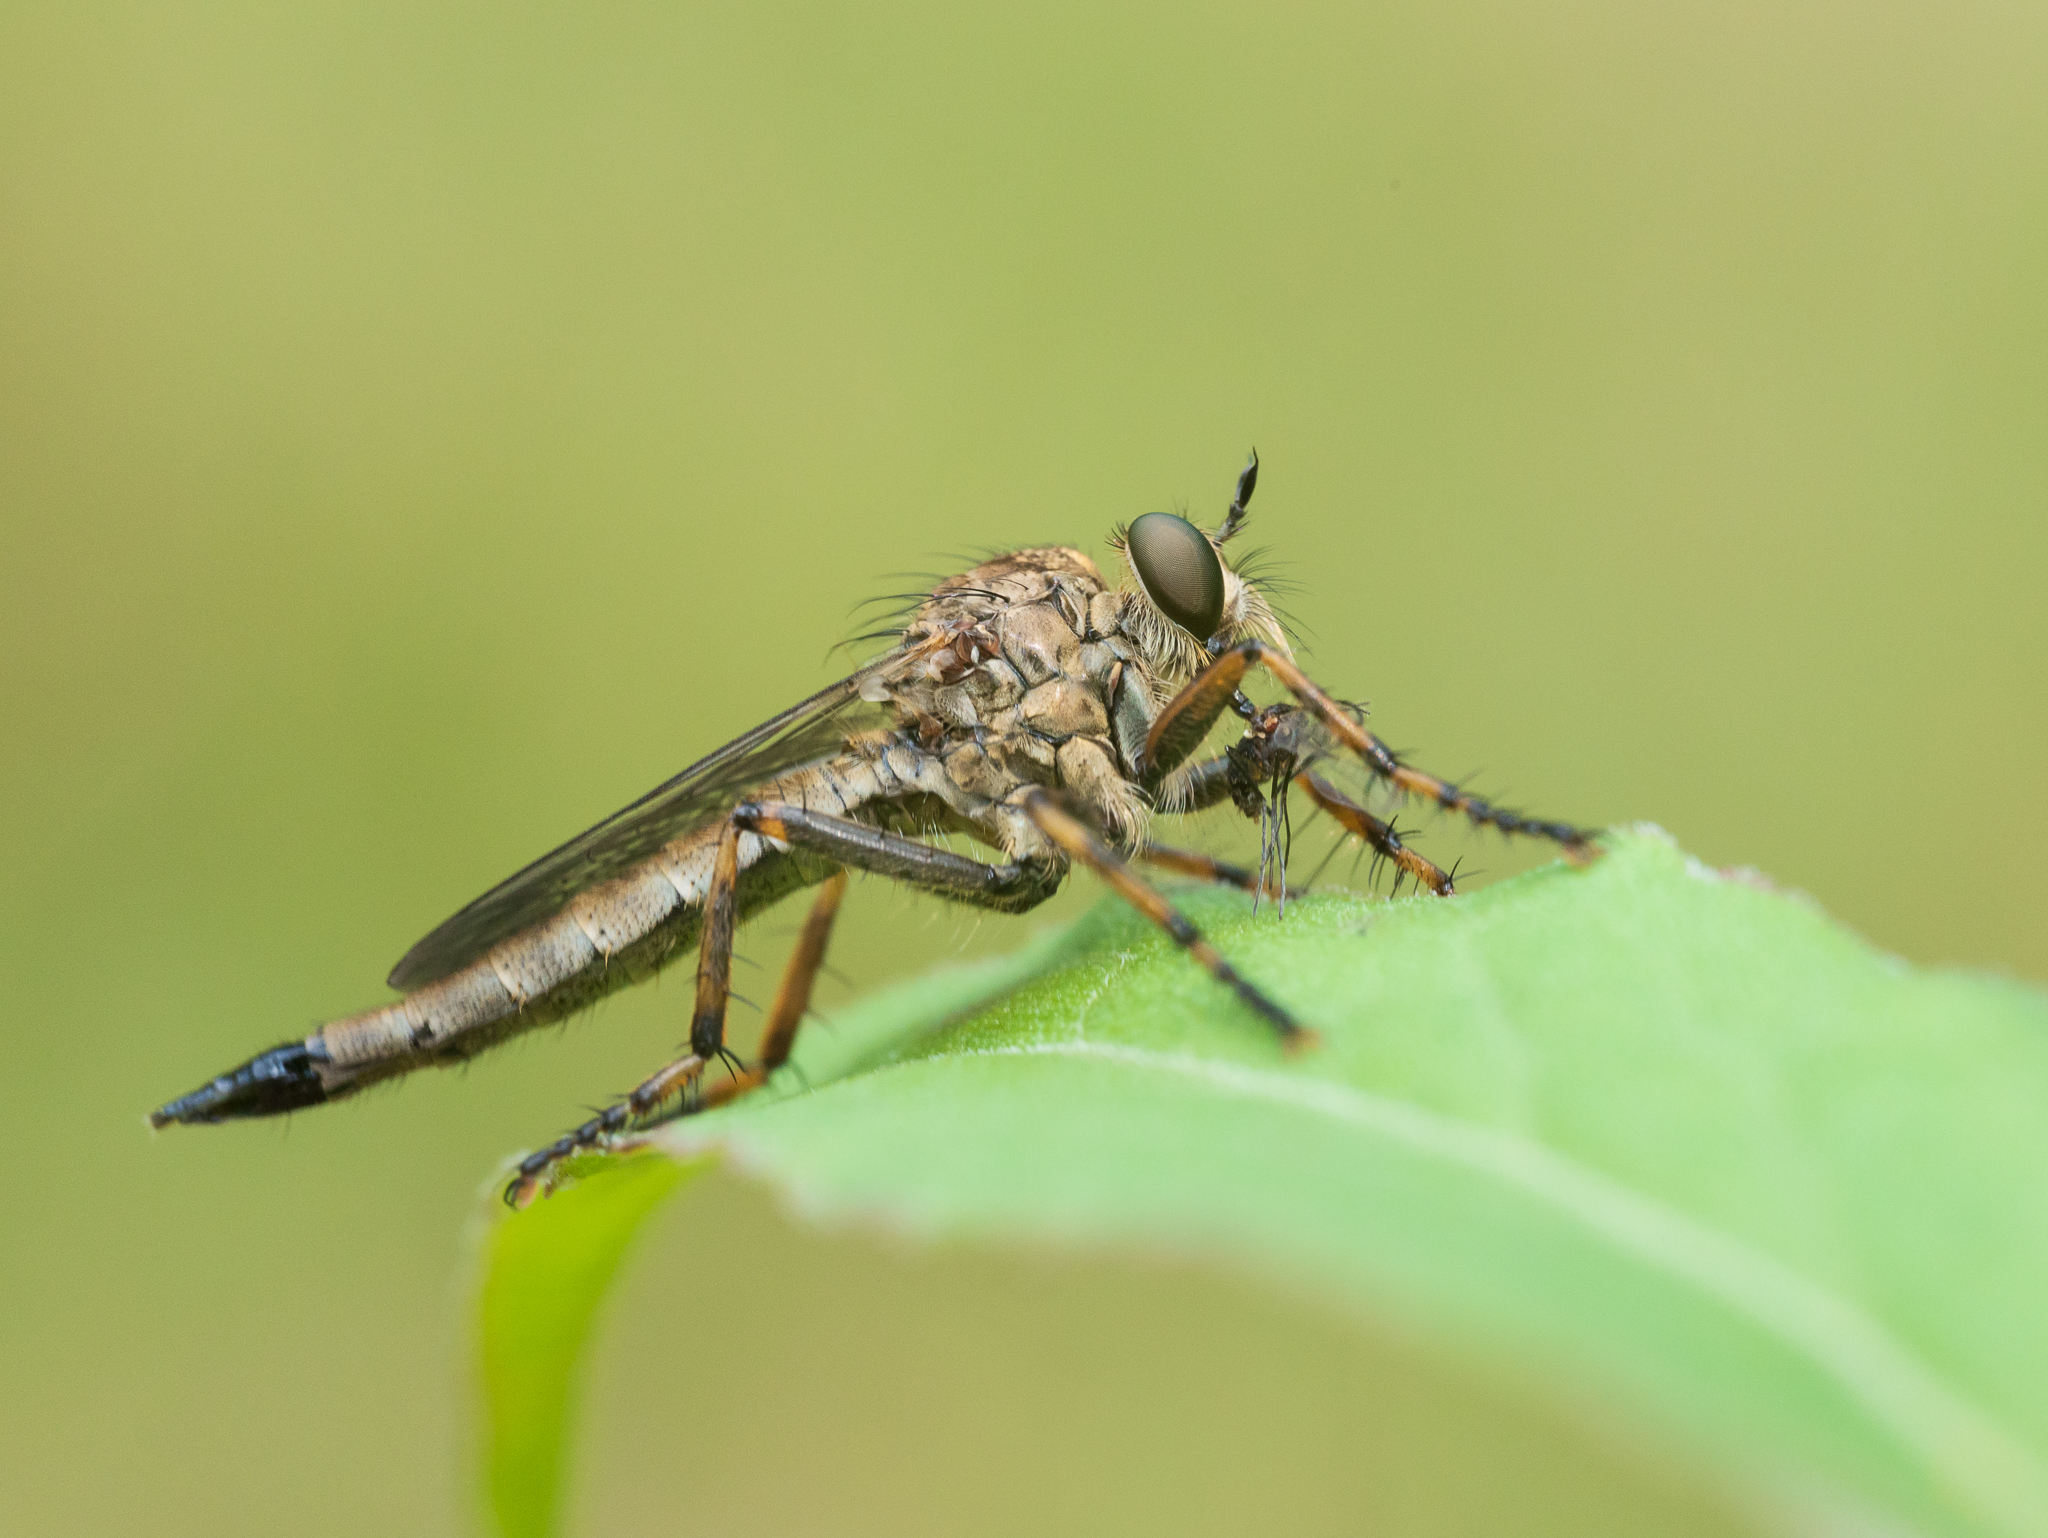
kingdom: Animalia
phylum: Arthropoda
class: Insecta
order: Diptera
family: Asilidae
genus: Epitriptus
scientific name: Epitriptus cingulatus
